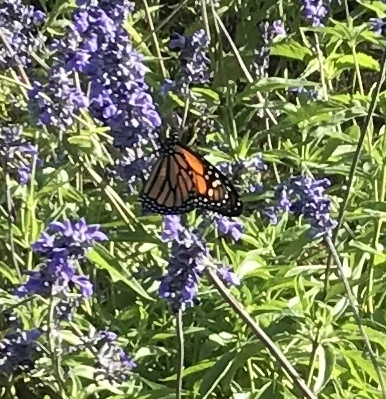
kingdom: Animalia
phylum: Arthropoda
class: Insecta
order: Lepidoptera
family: Nymphalidae
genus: Danaus
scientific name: Danaus plexippus
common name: Monarch
